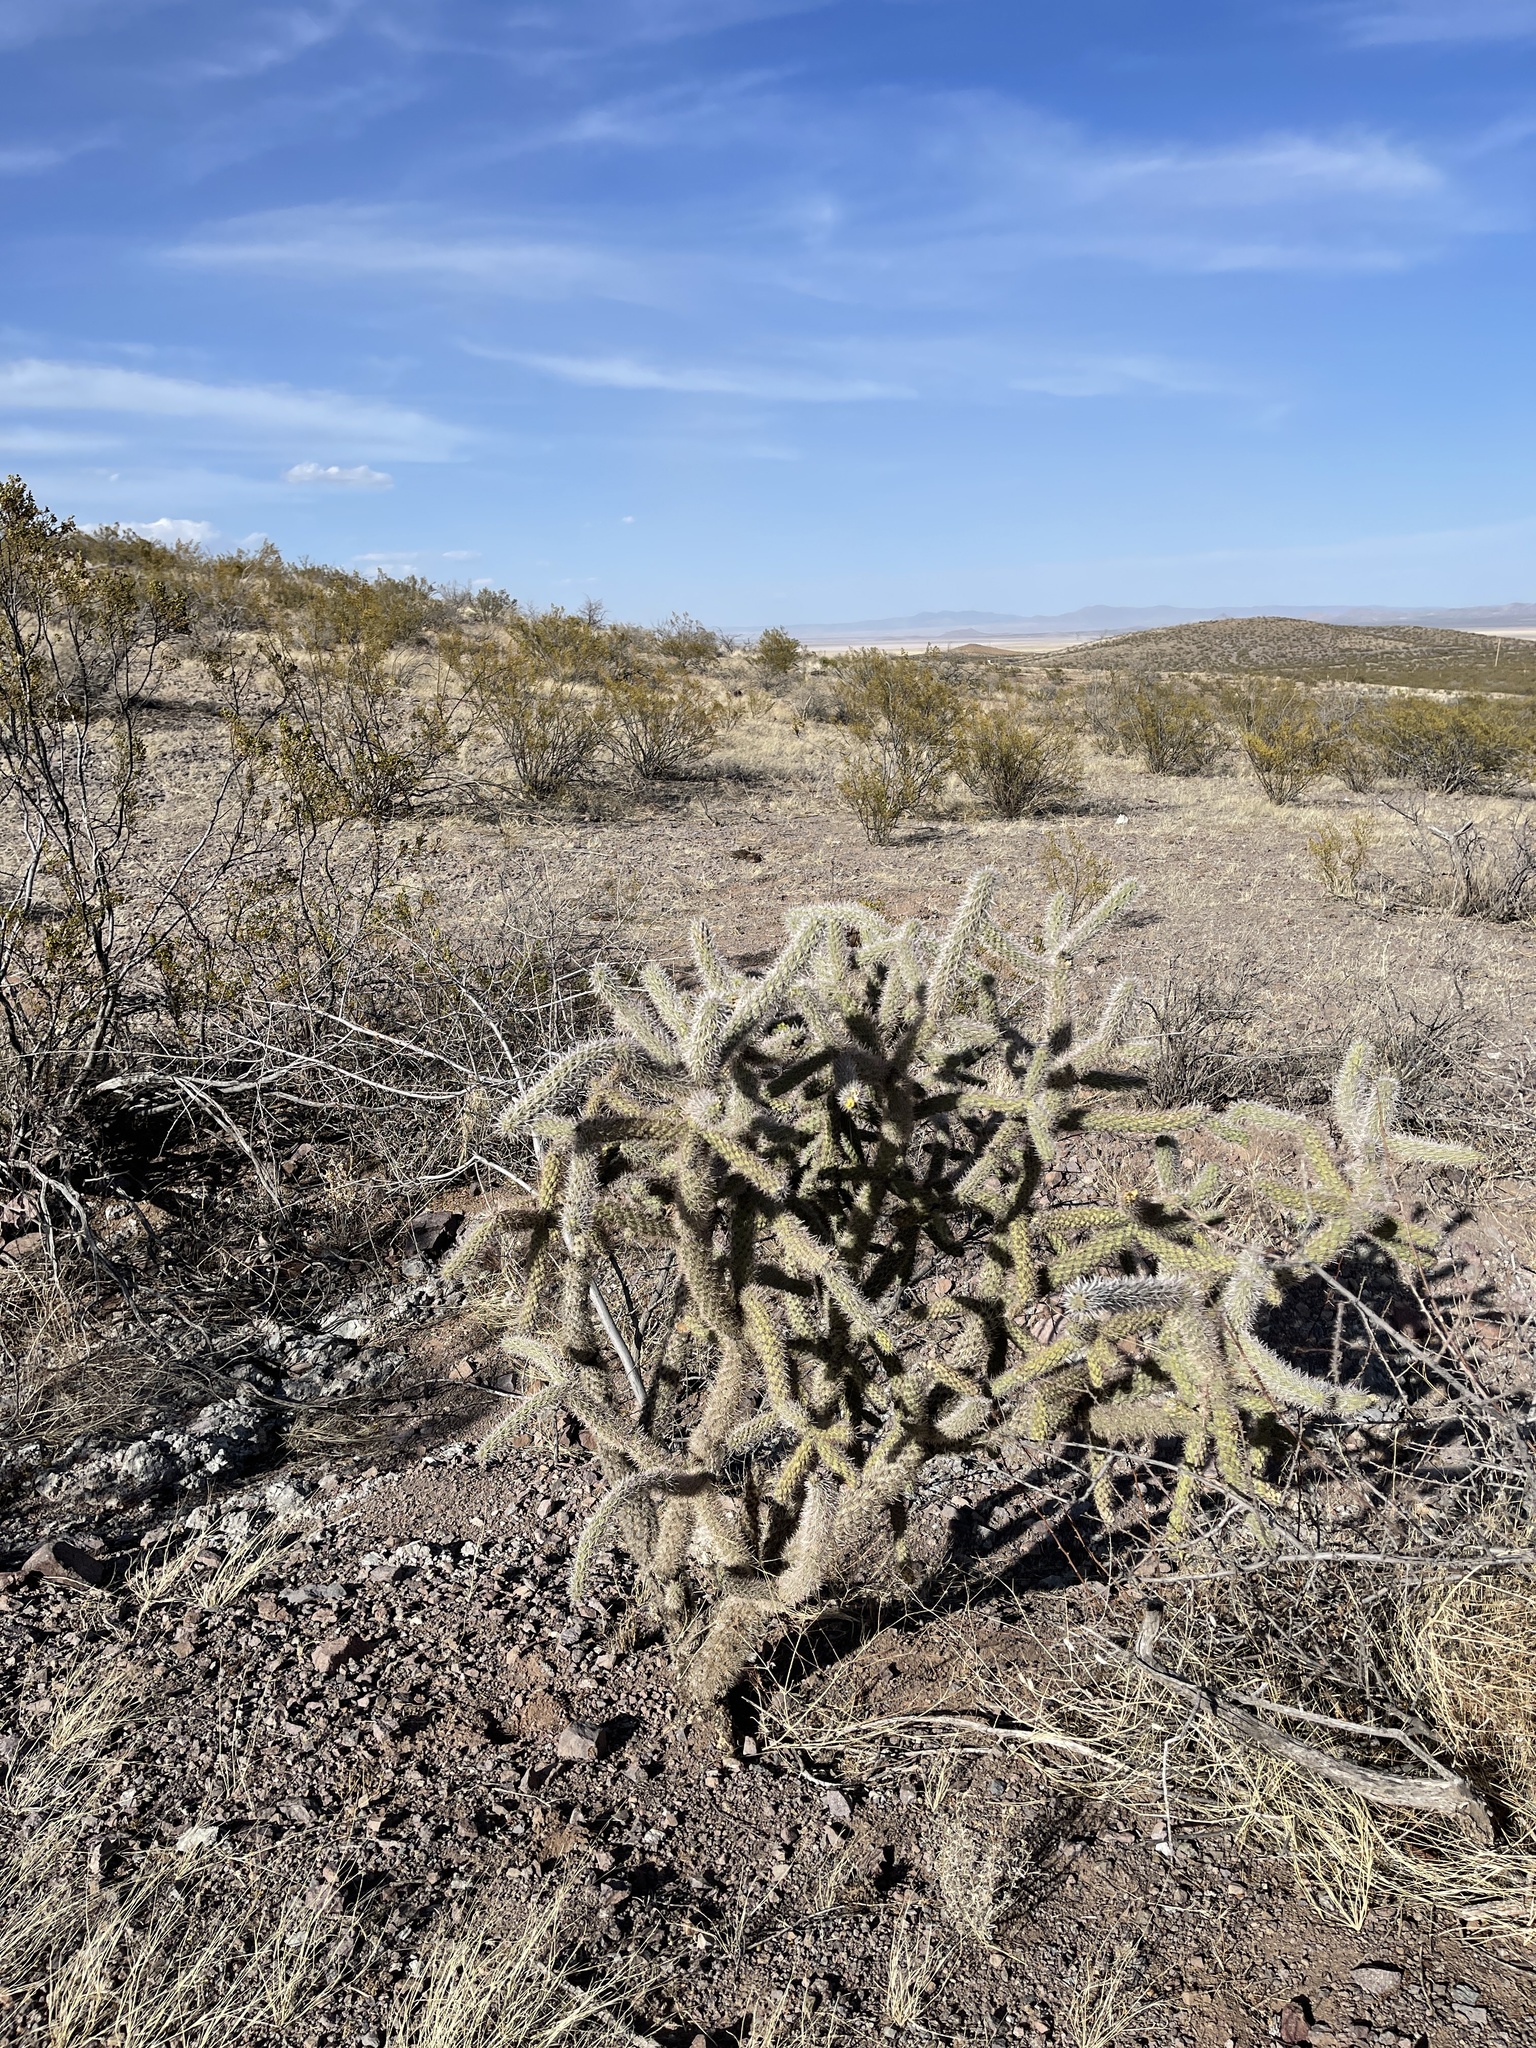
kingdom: Plantae
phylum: Tracheophyta
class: Magnoliopsida
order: Caryophyllales
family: Cactaceae
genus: Cylindropuntia
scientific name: Cylindropuntia imbricata
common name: Candelabrum cactus
